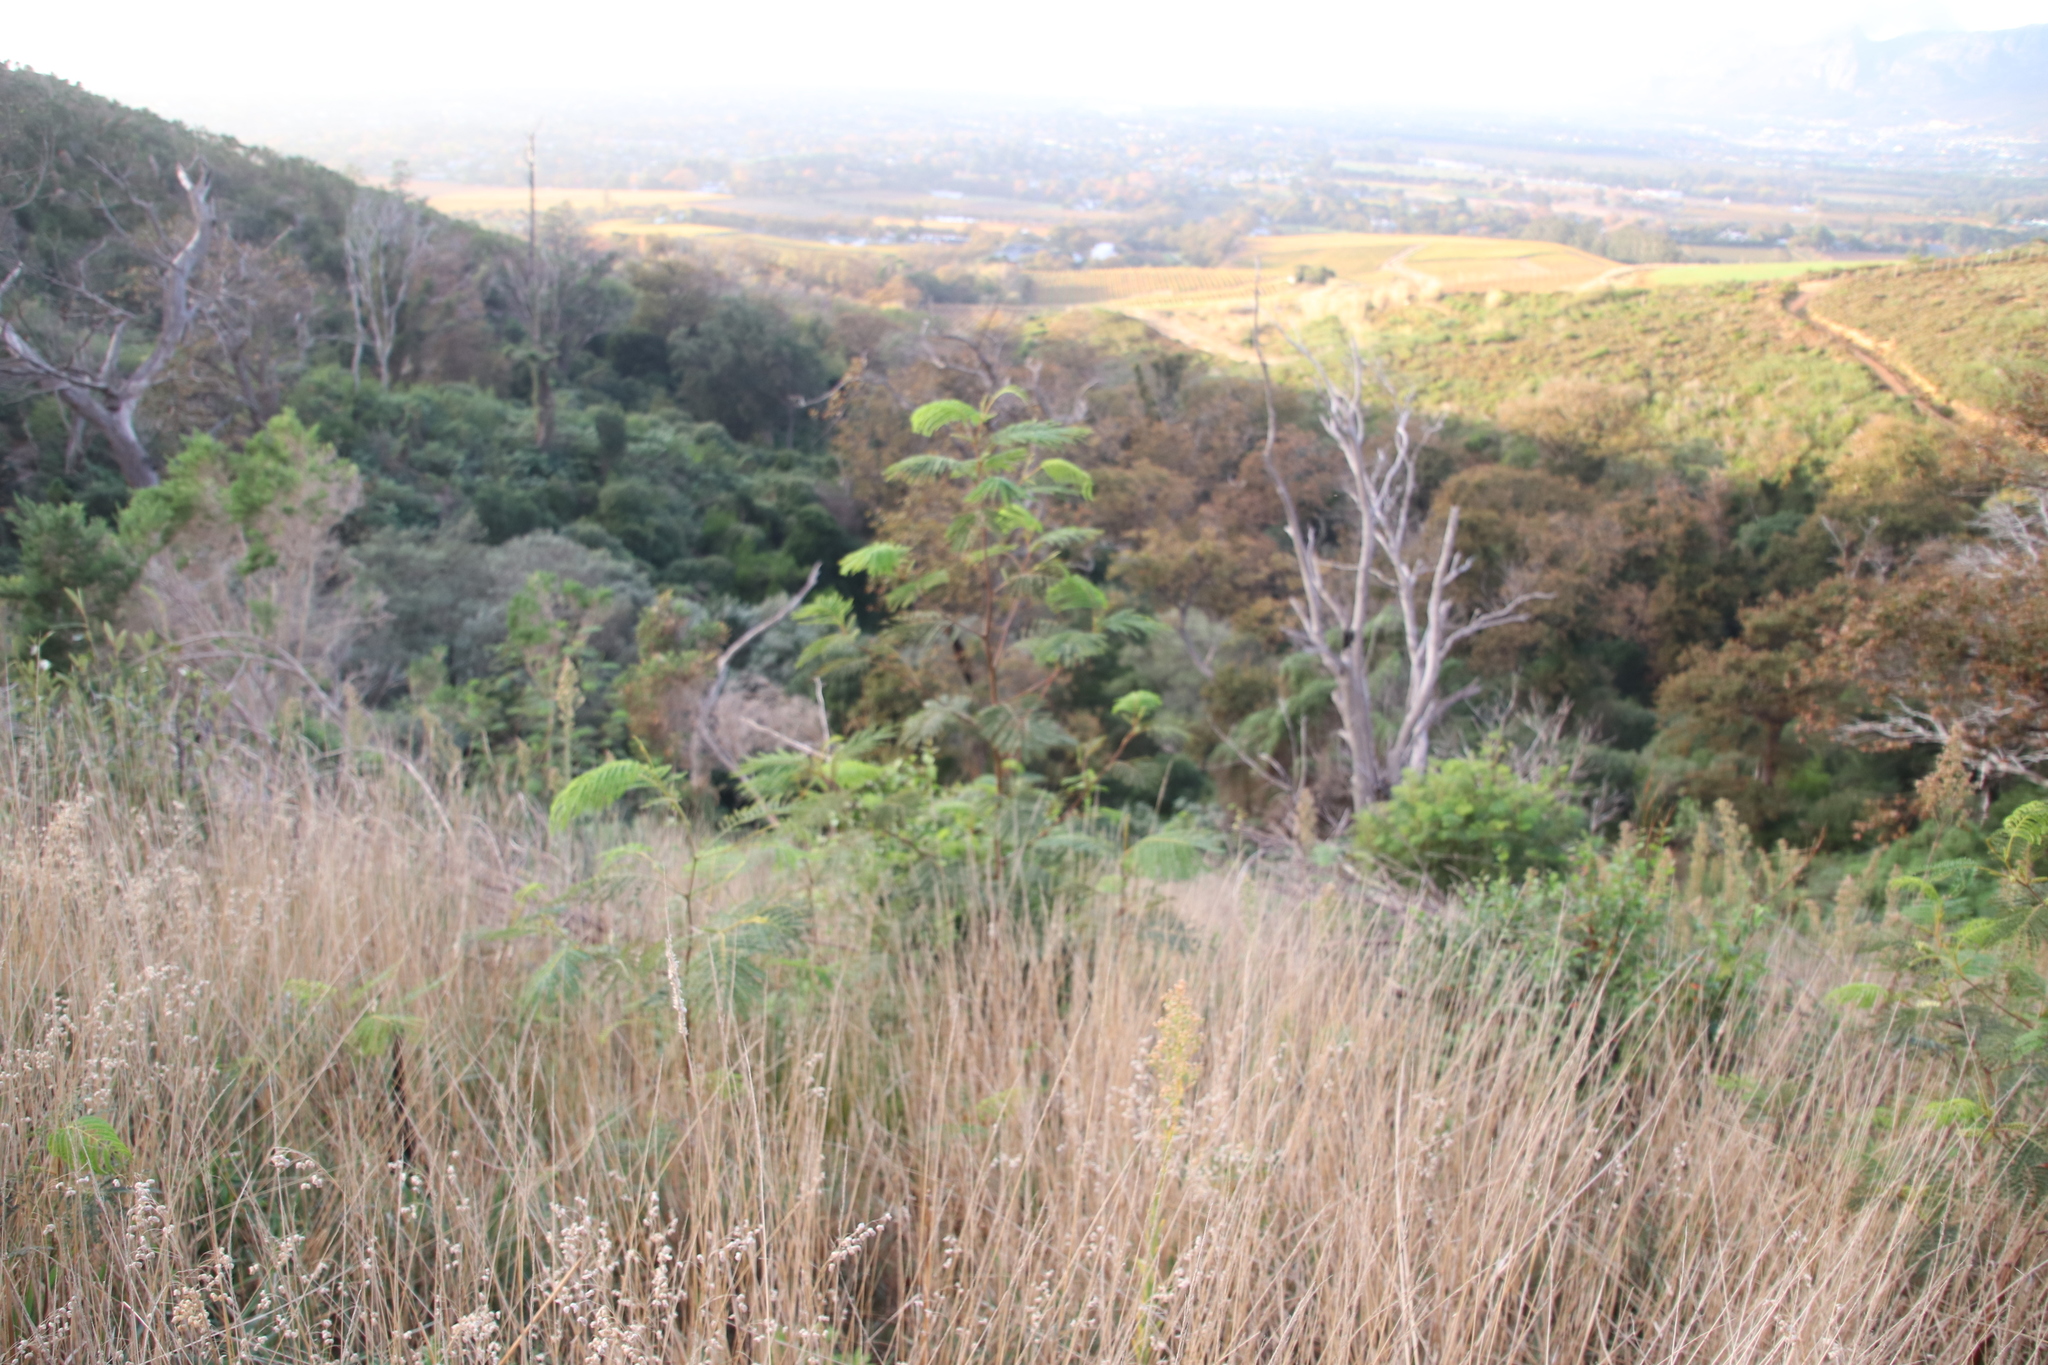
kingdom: Plantae
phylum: Tracheophyta
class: Magnoliopsida
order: Fabales
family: Fabaceae
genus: Paraserianthes
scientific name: Paraserianthes lophantha
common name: Plume albizia
